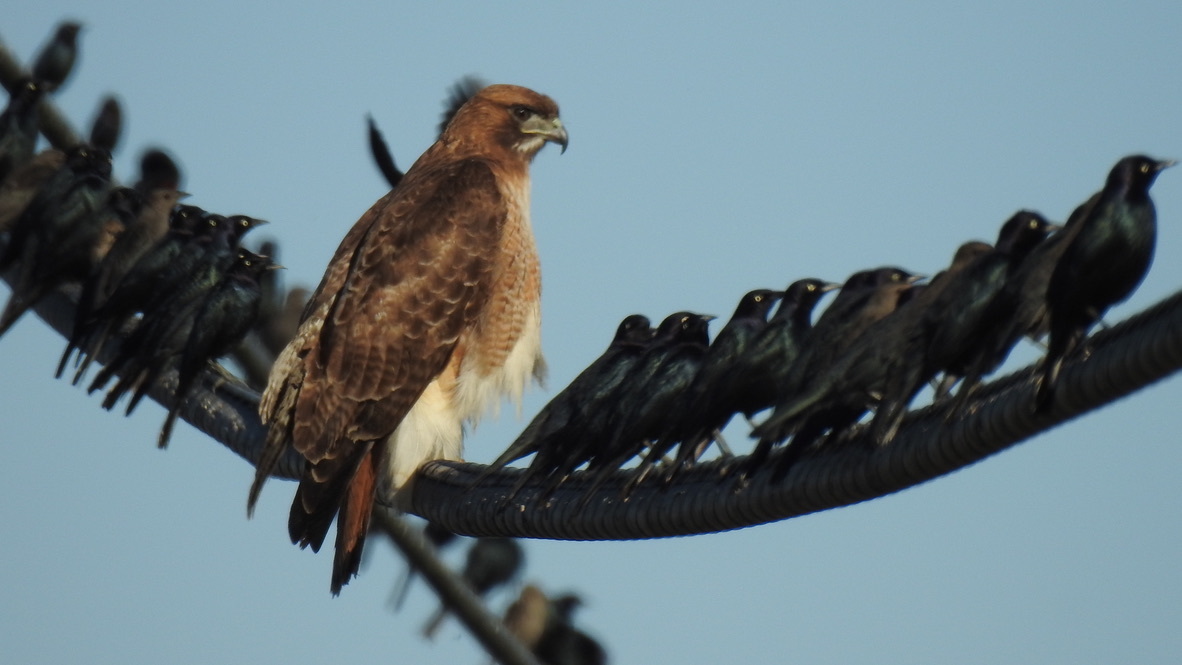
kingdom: Animalia
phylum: Chordata
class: Aves
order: Passeriformes
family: Icteridae
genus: Euphagus
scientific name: Euphagus cyanocephalus
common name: Brewer's blackbird
